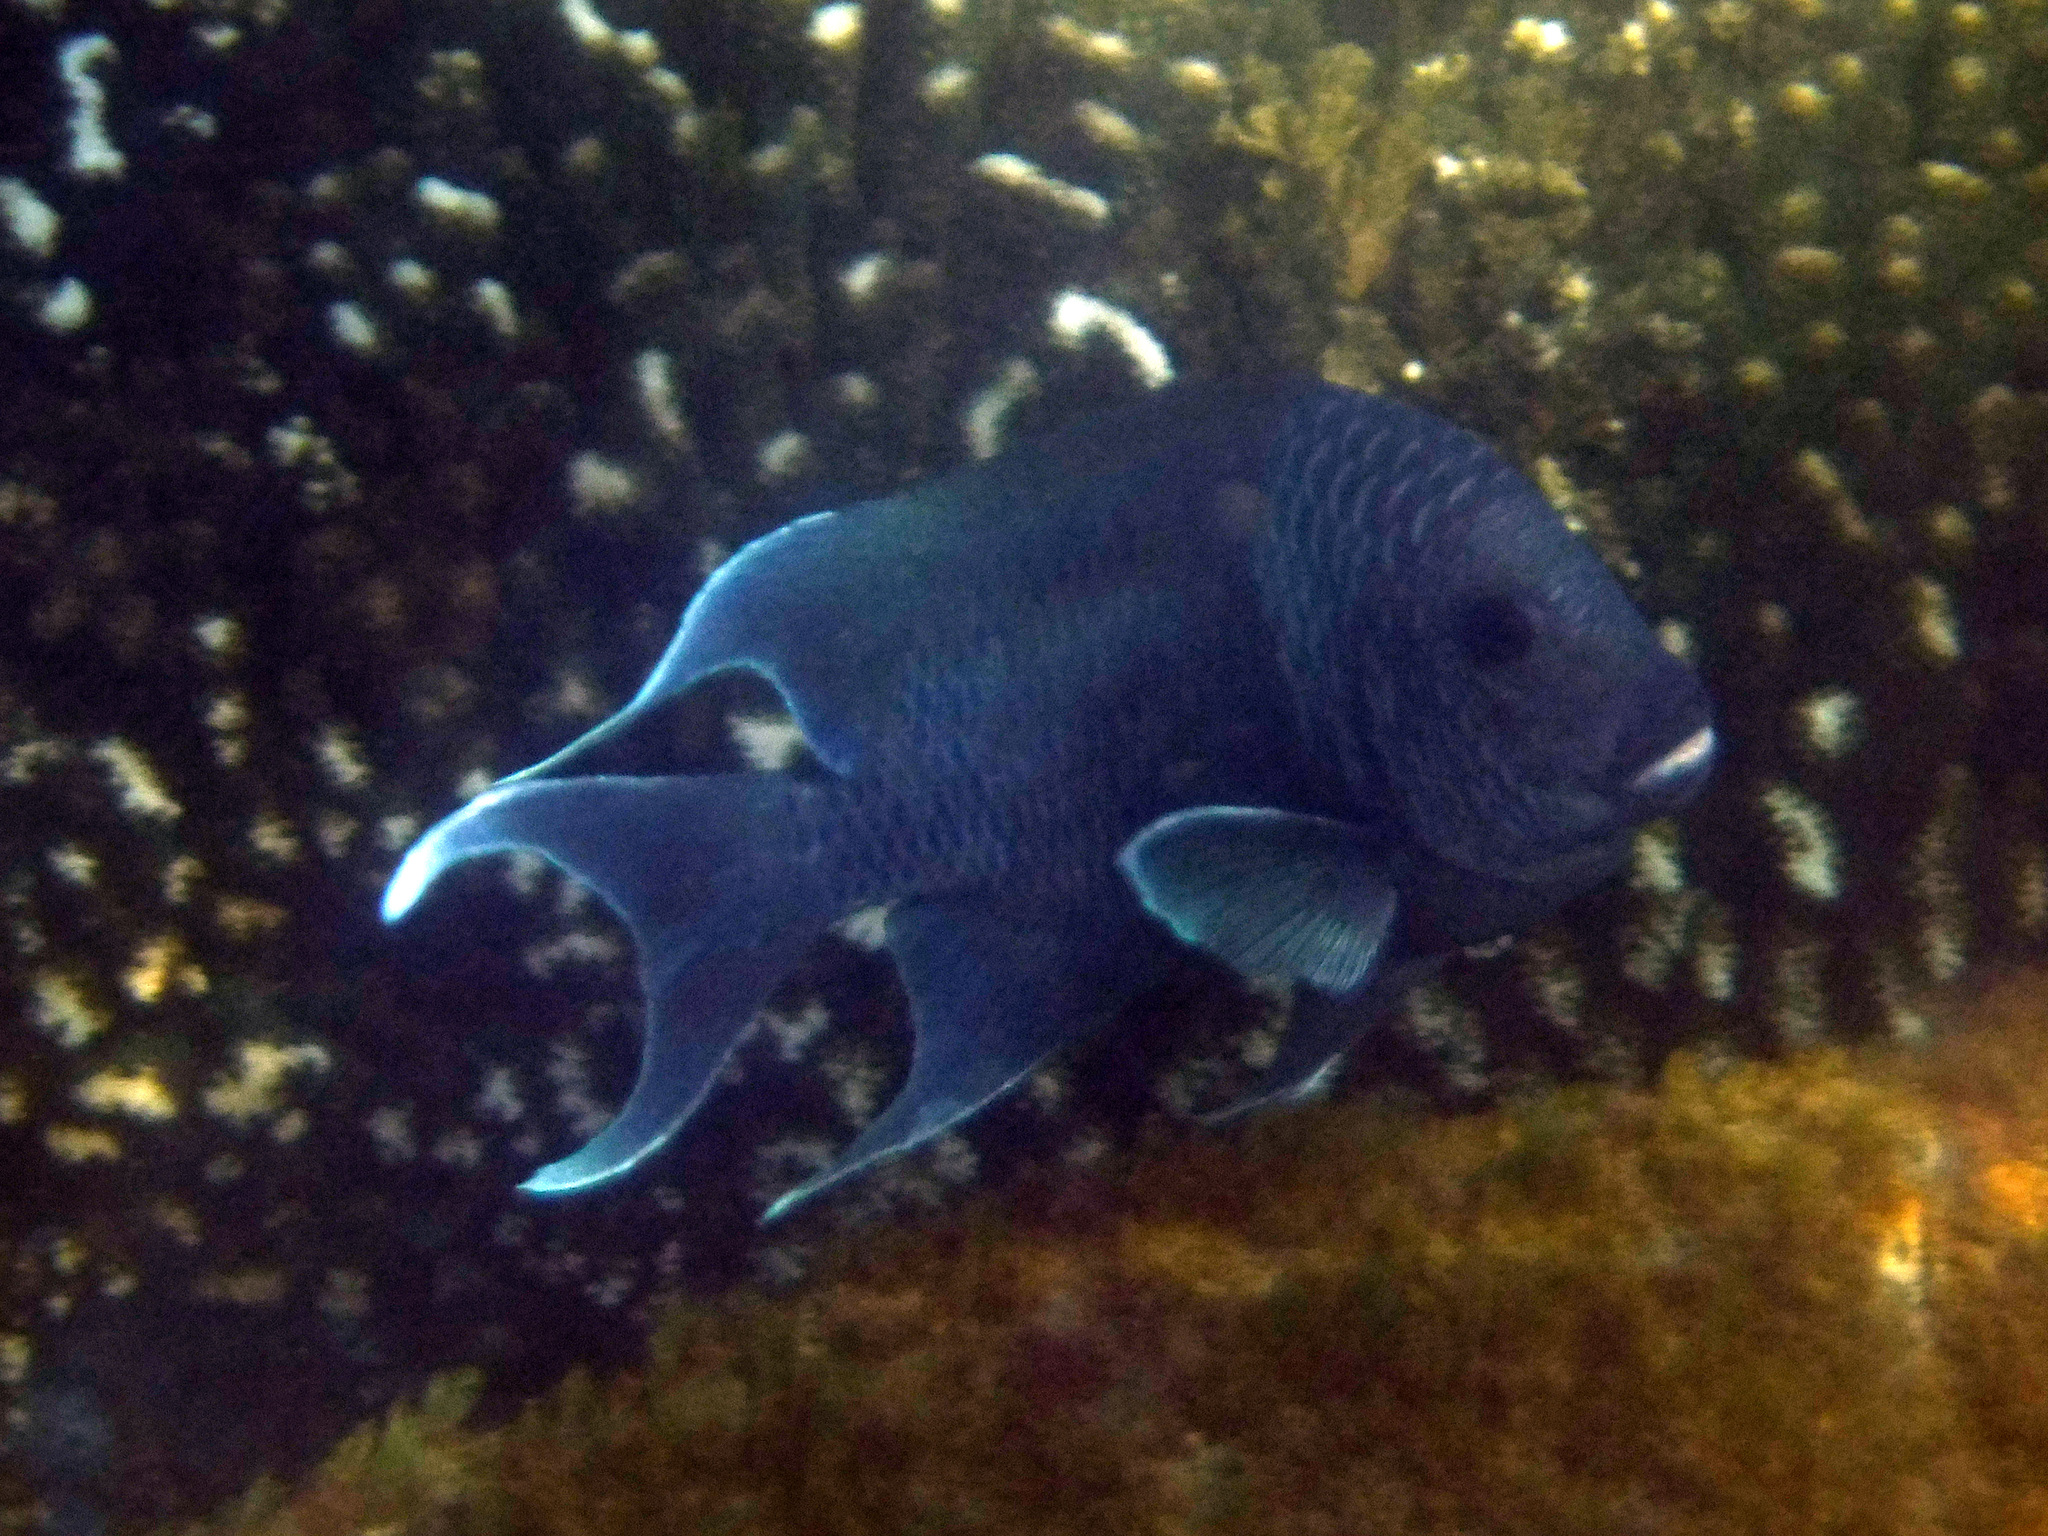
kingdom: Animalia
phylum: Chordata
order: Perciformes
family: Pomacentridae
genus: Microspathodon
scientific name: Microspathodon dorsalis
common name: Giant damselfish
